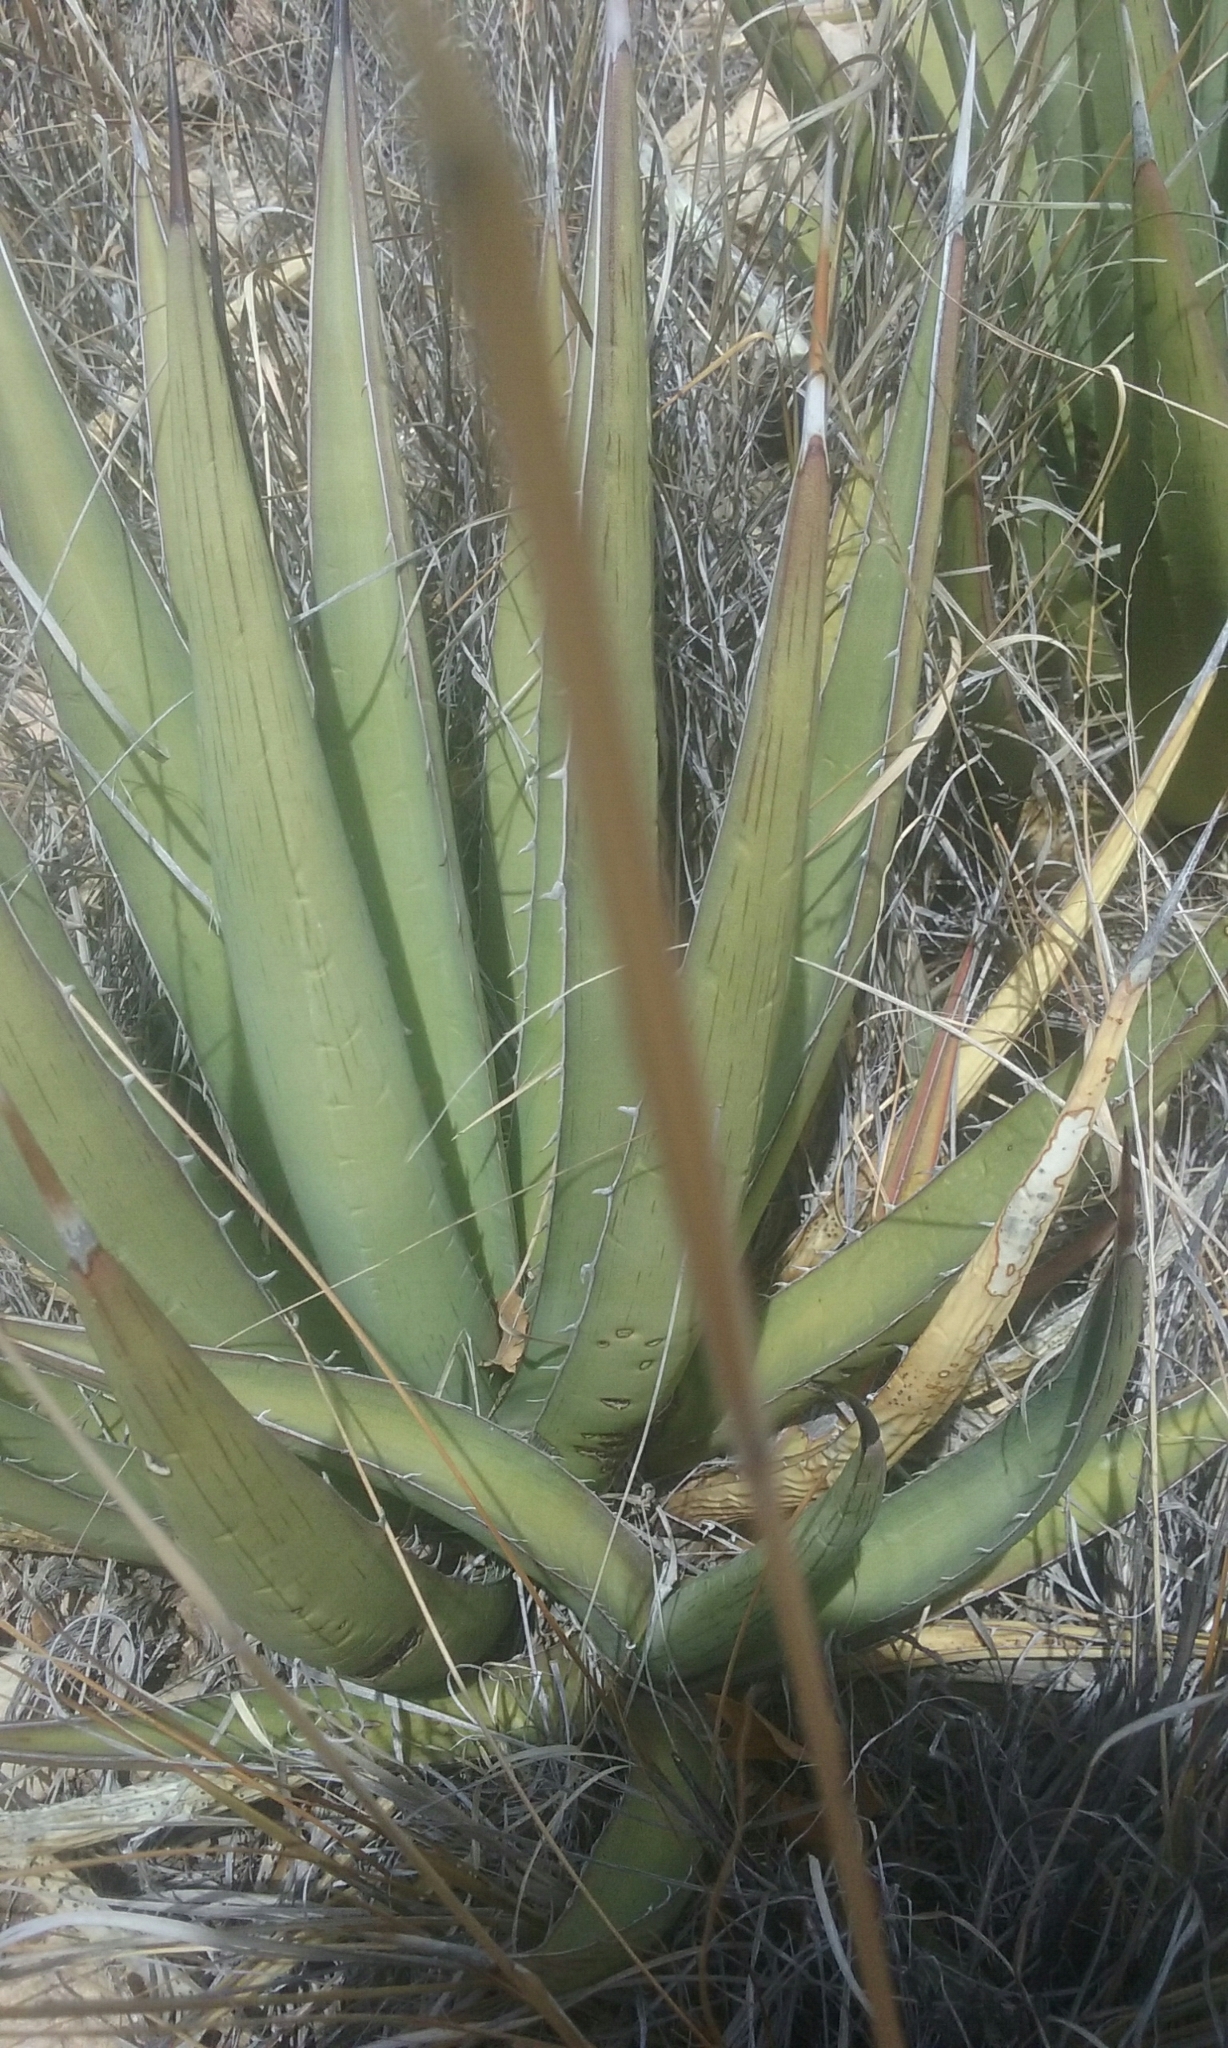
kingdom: Plantae
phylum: Tracheophyta
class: Liliopsida
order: Asparagales
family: Asparagaceae
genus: Agave
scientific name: Agave lechuguilla
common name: Lecheguilla agave
